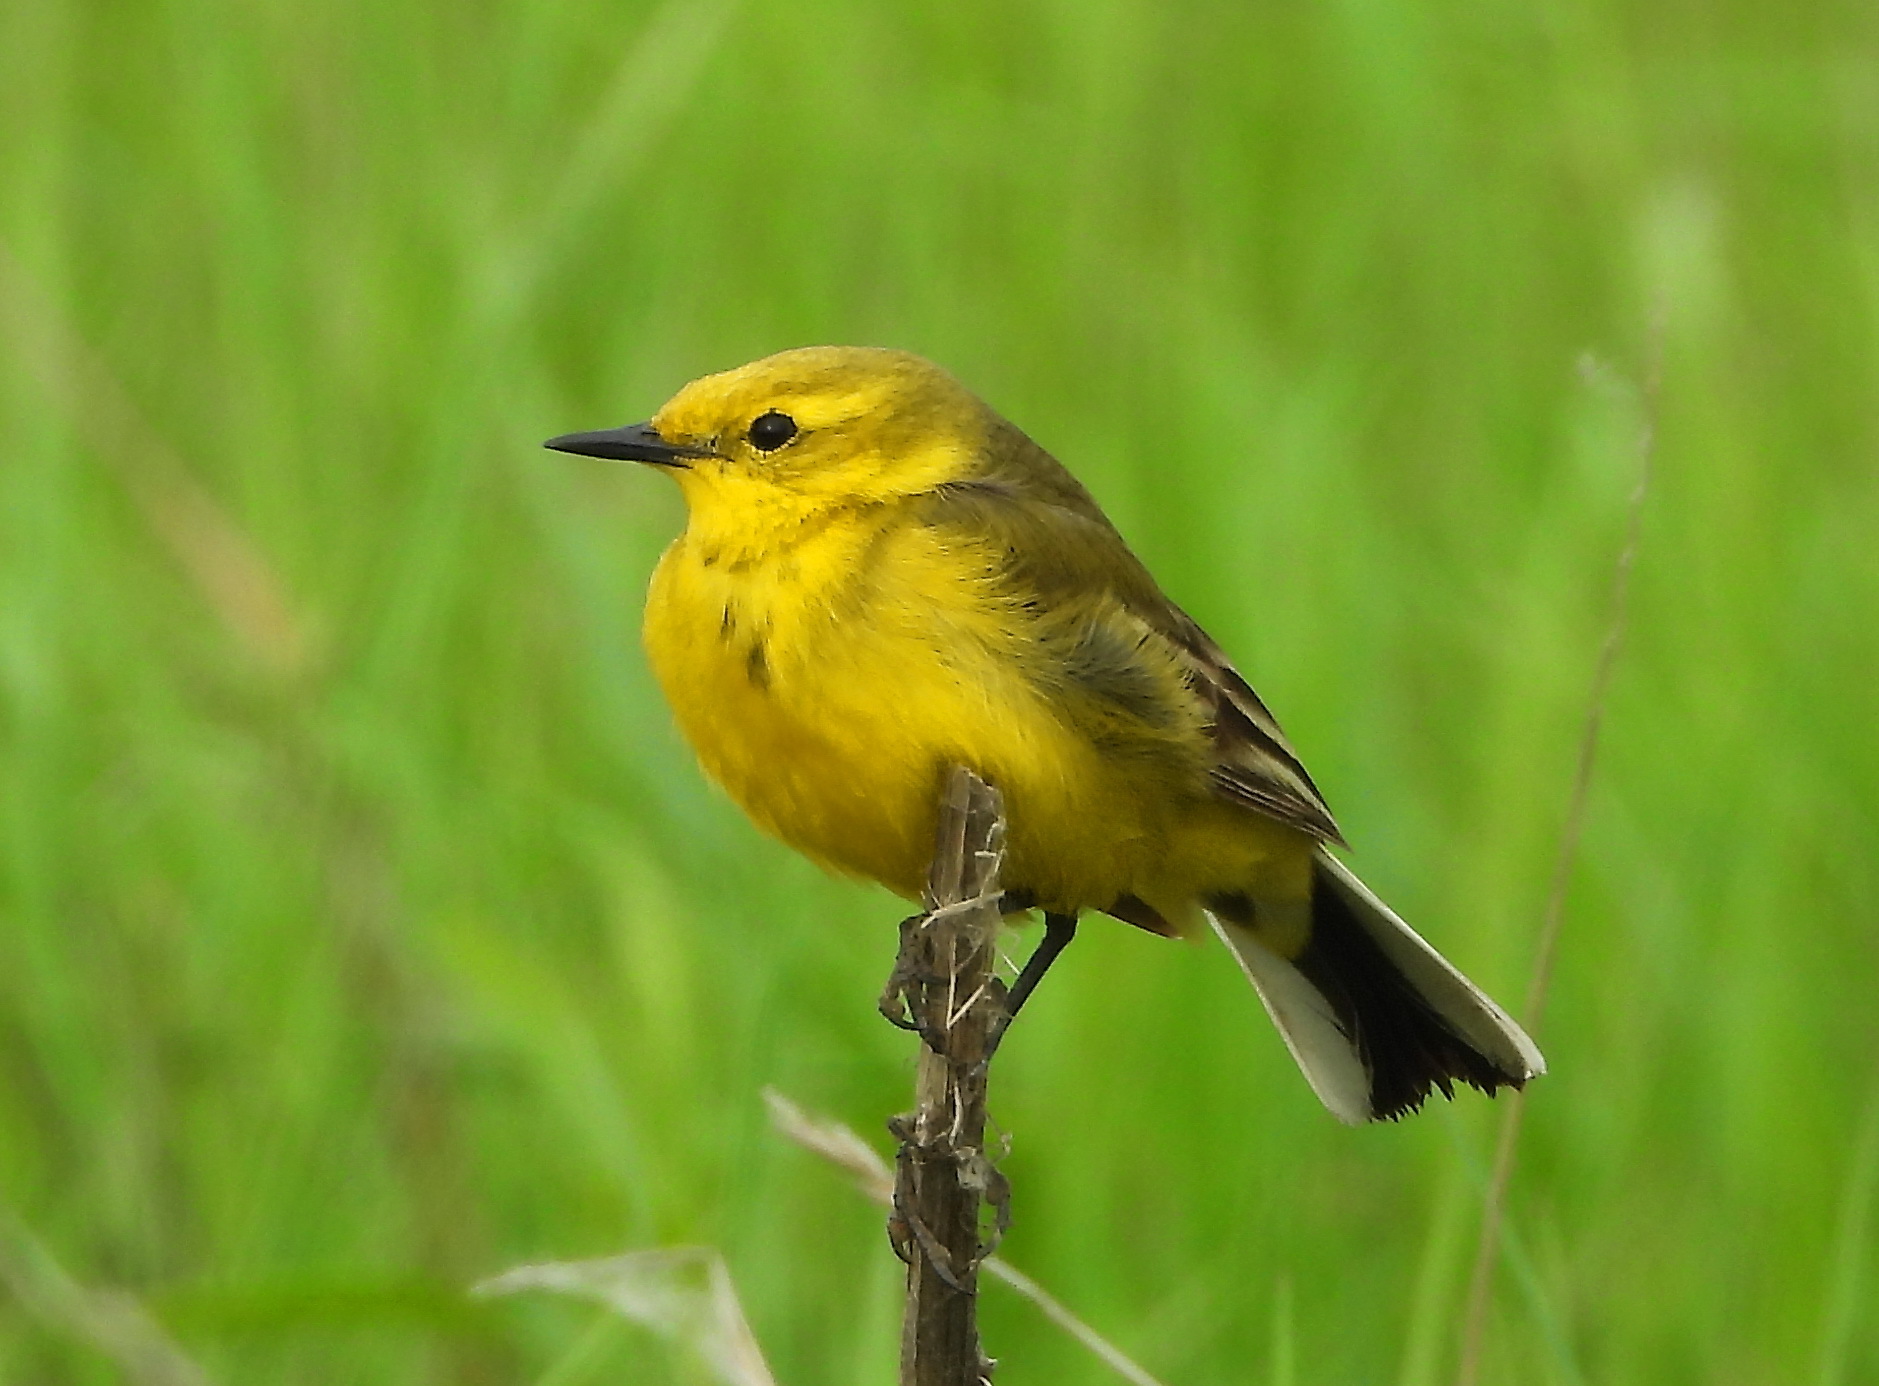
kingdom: Animalia
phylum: Chordata
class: Aves
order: Passeriformes
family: Motacillidae
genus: Motacilla
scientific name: Motacilla flava
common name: Western yellow wagtail
